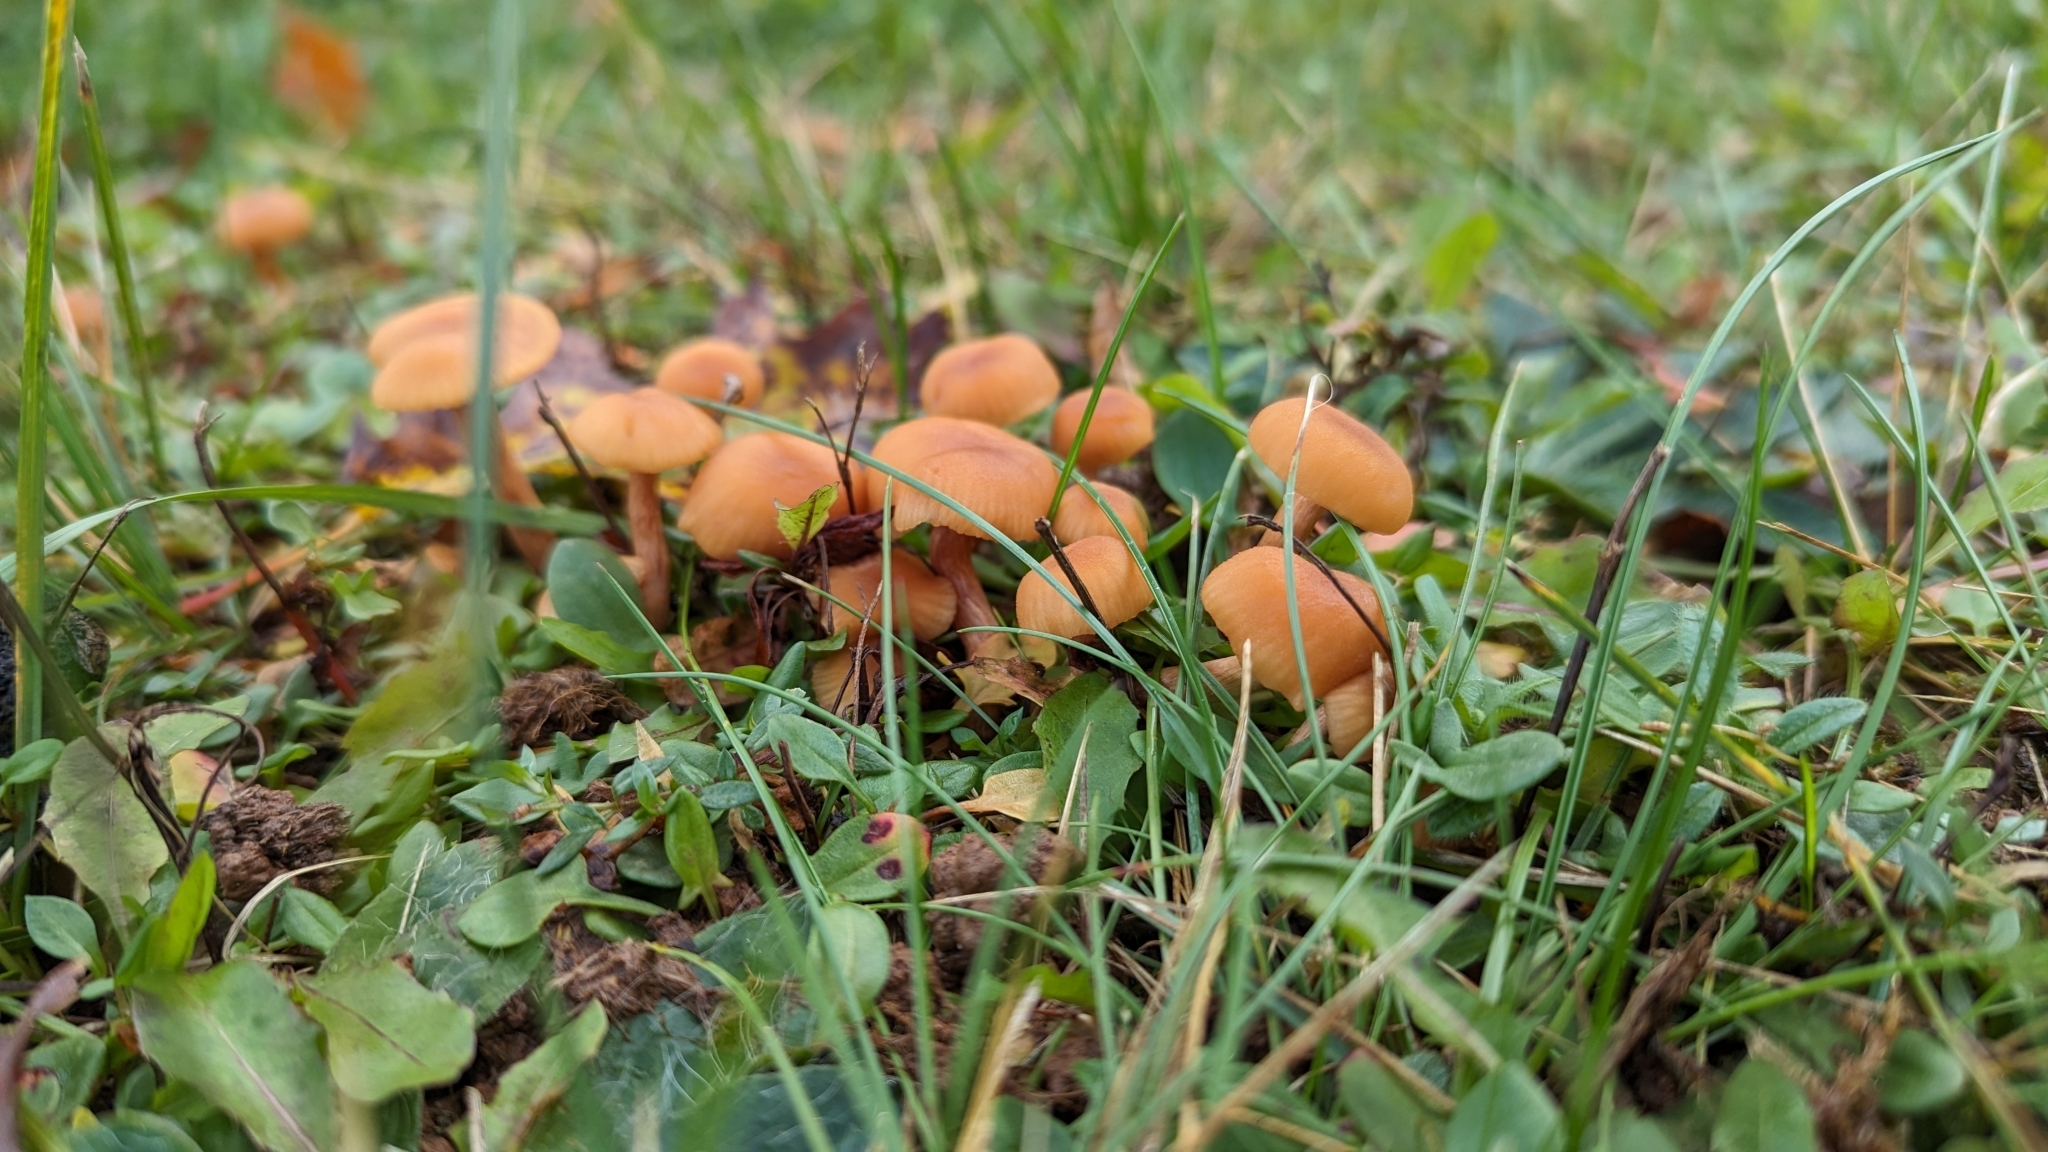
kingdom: Fungi
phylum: Basidiomycota
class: Agaricomycetes
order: Agaricales
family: Hydnangiaceae
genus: Laccaria
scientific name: Laccaria laccata
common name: Deceiver
